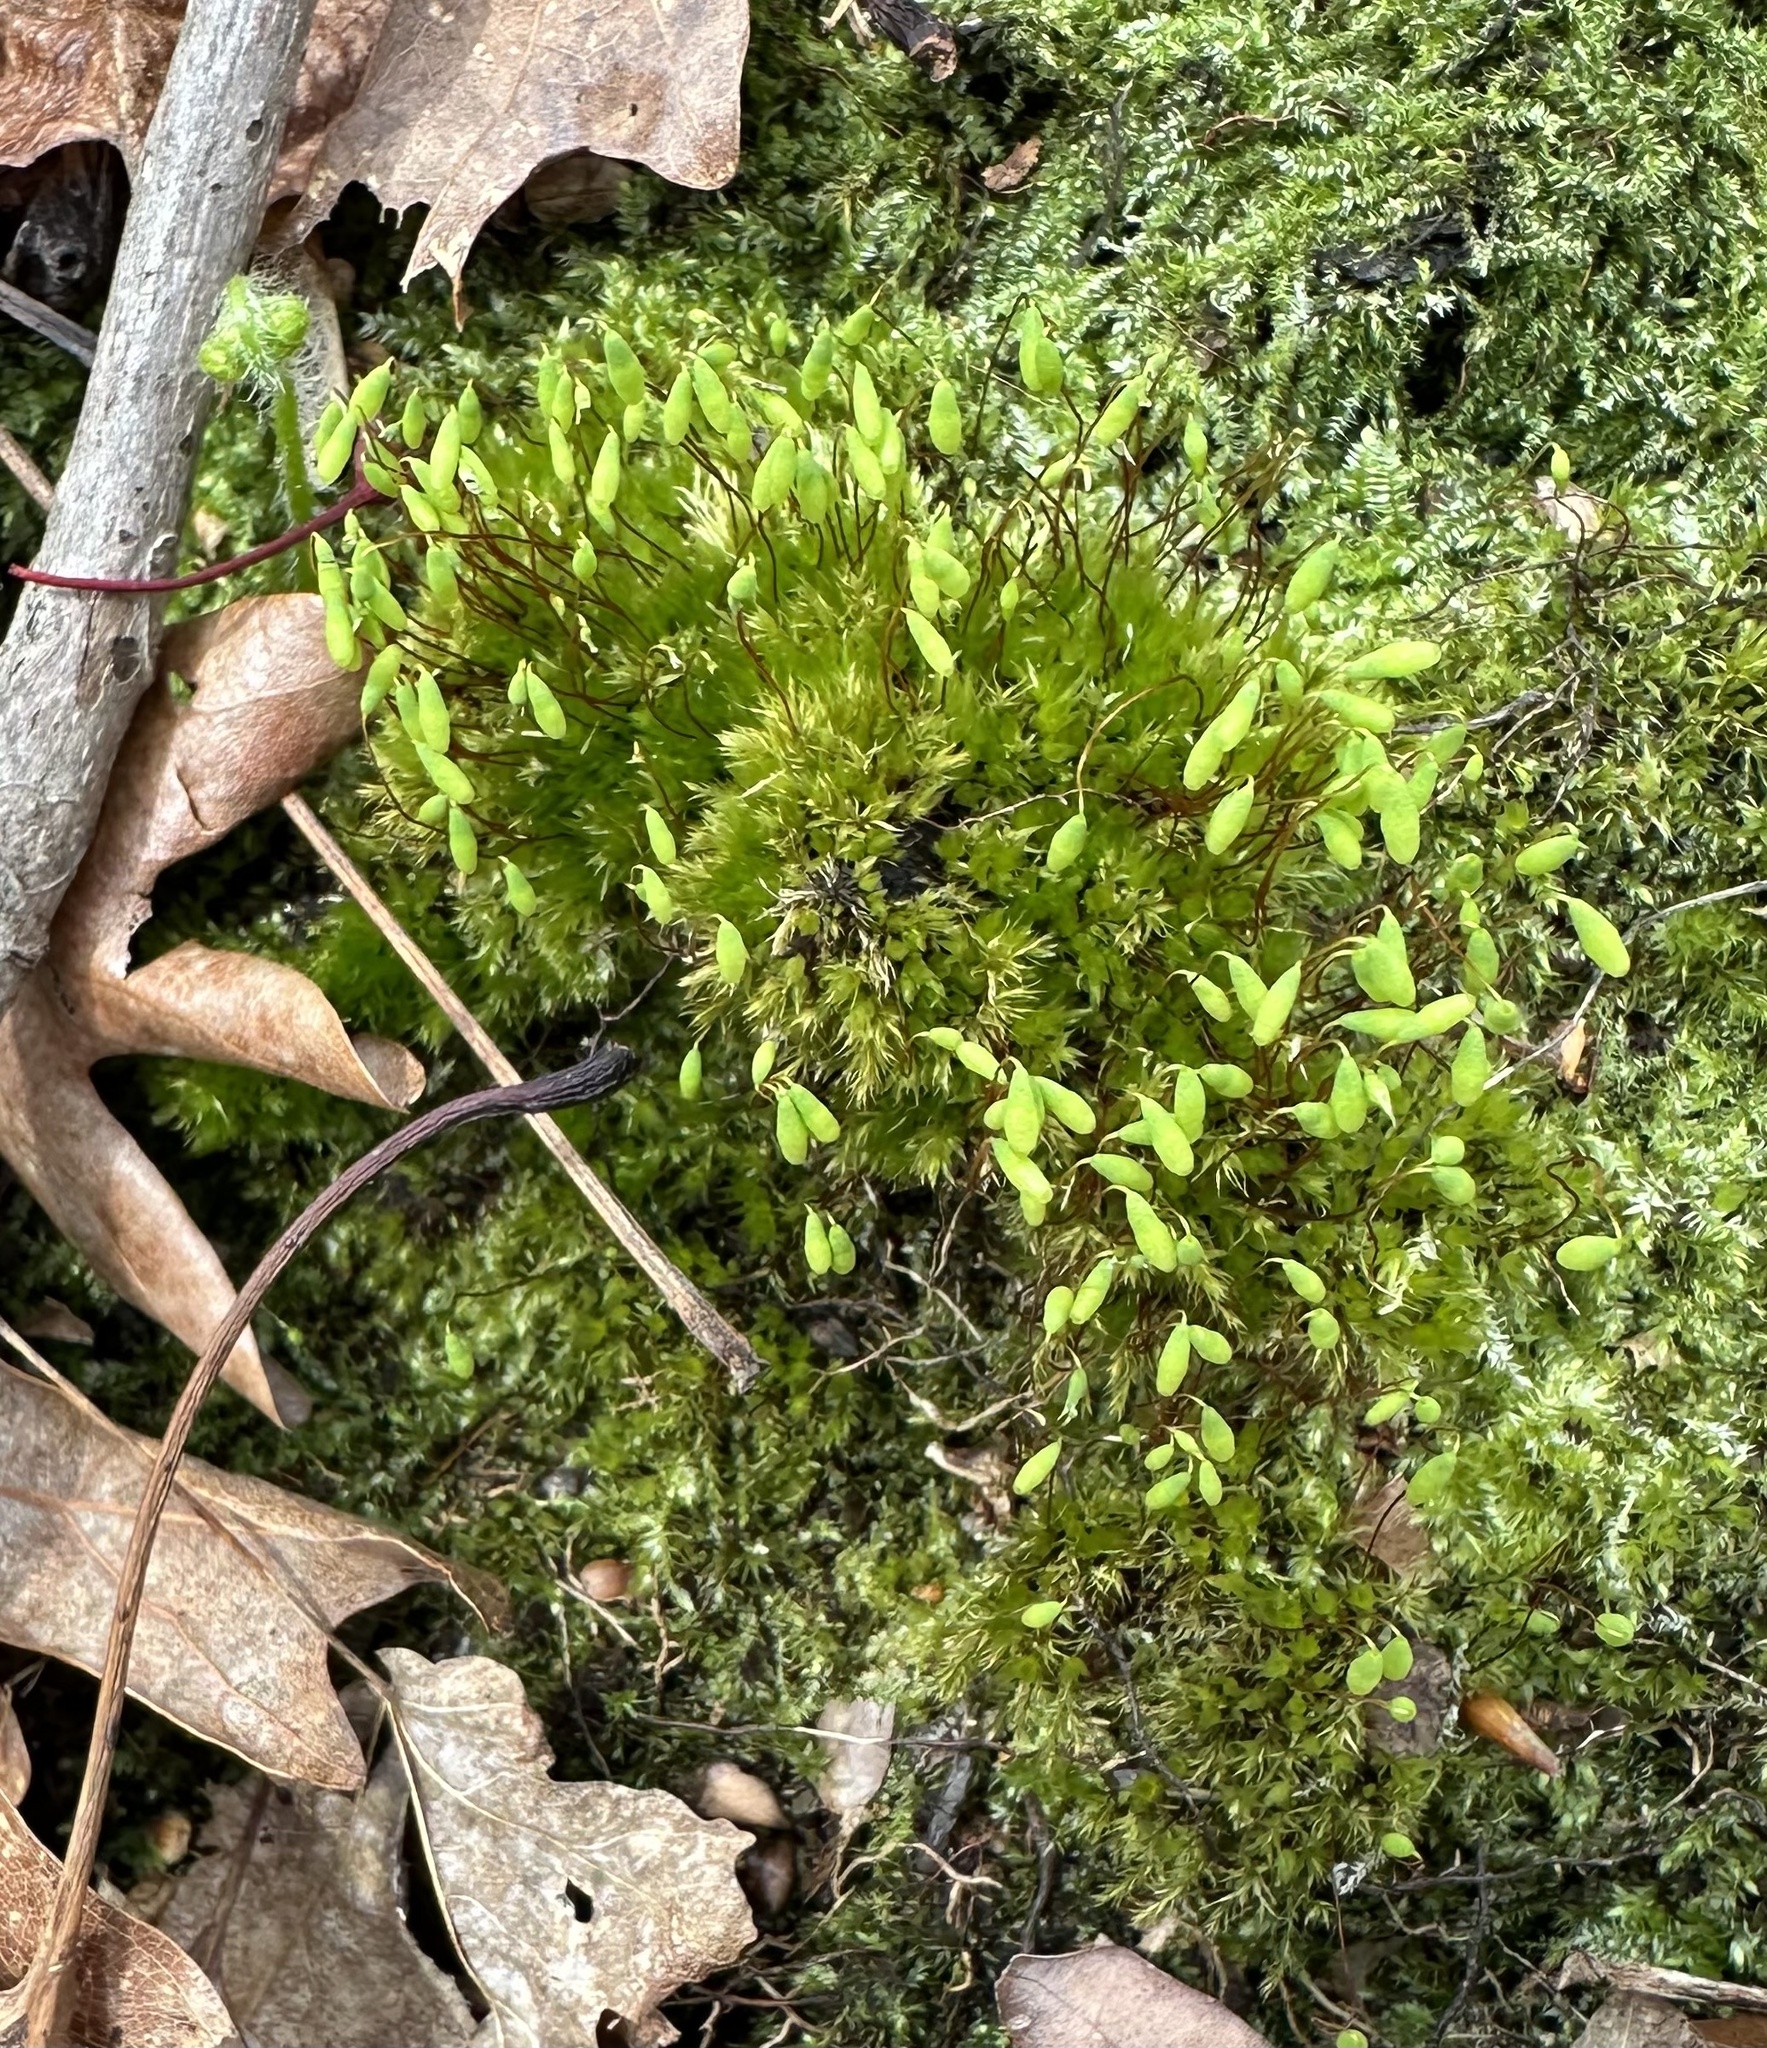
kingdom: Plantae
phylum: Bryophyta
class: Bryopsida
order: Bryales
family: Mniaceae
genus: Pohlia
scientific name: Pohlia nutans
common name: Nodding thread-moss
